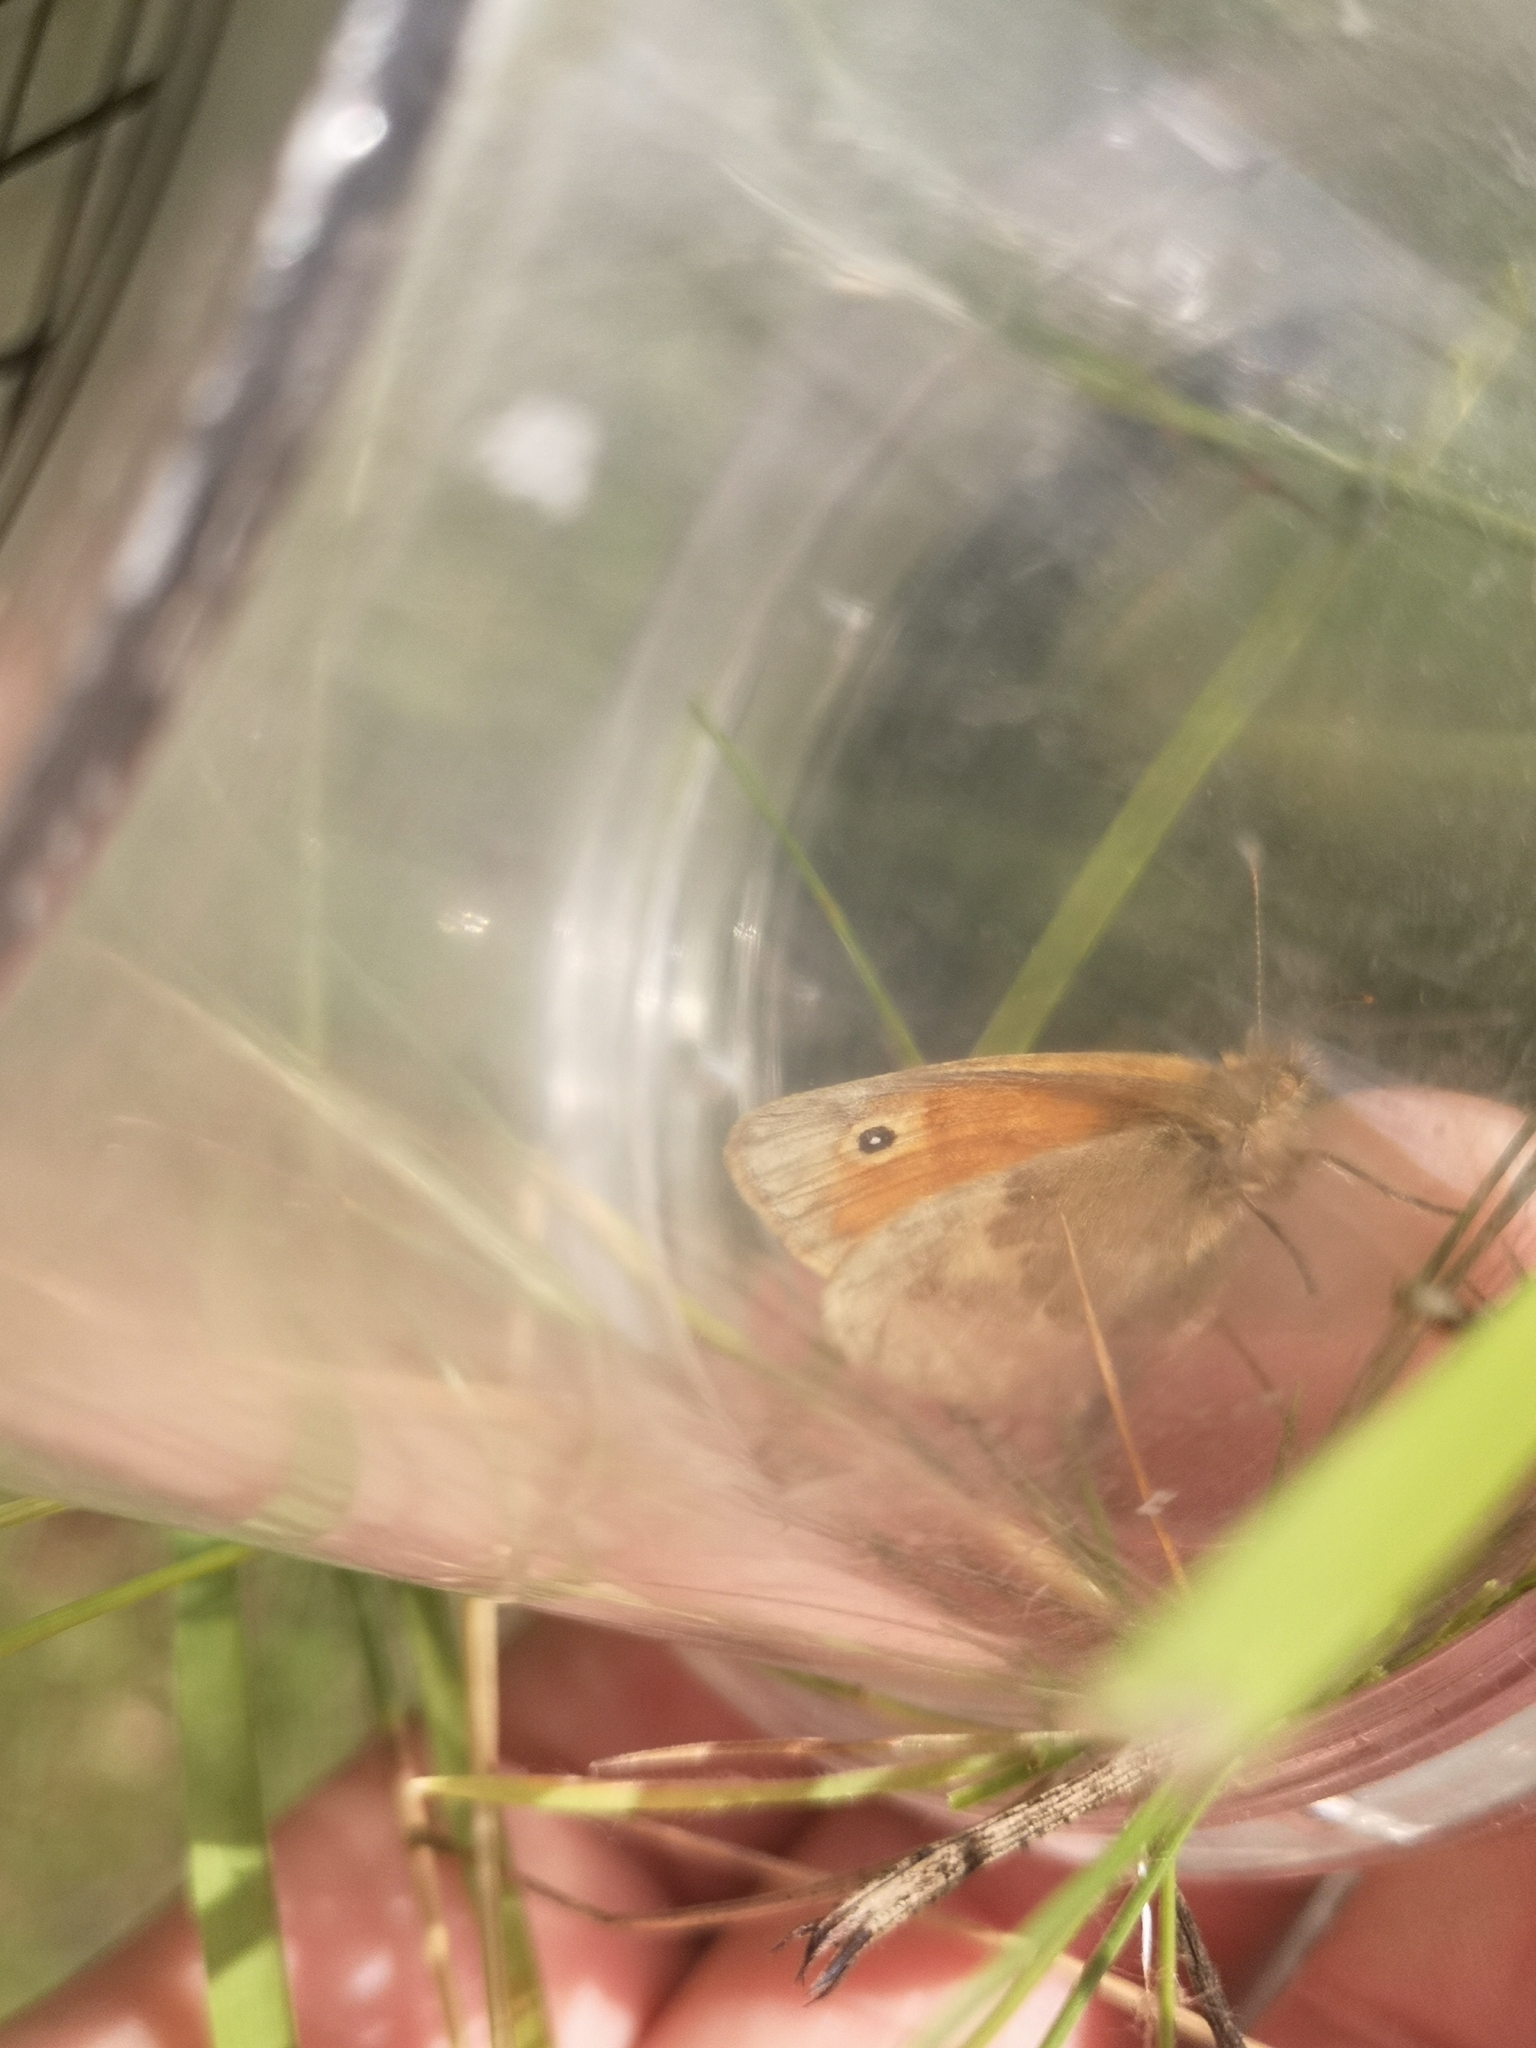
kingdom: Animalia
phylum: Arthropoda
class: Insecta
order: Lepidoptera
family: Nymphalidae
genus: Coenonympha
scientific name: Coenonympha pamphilus
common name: Small heath
